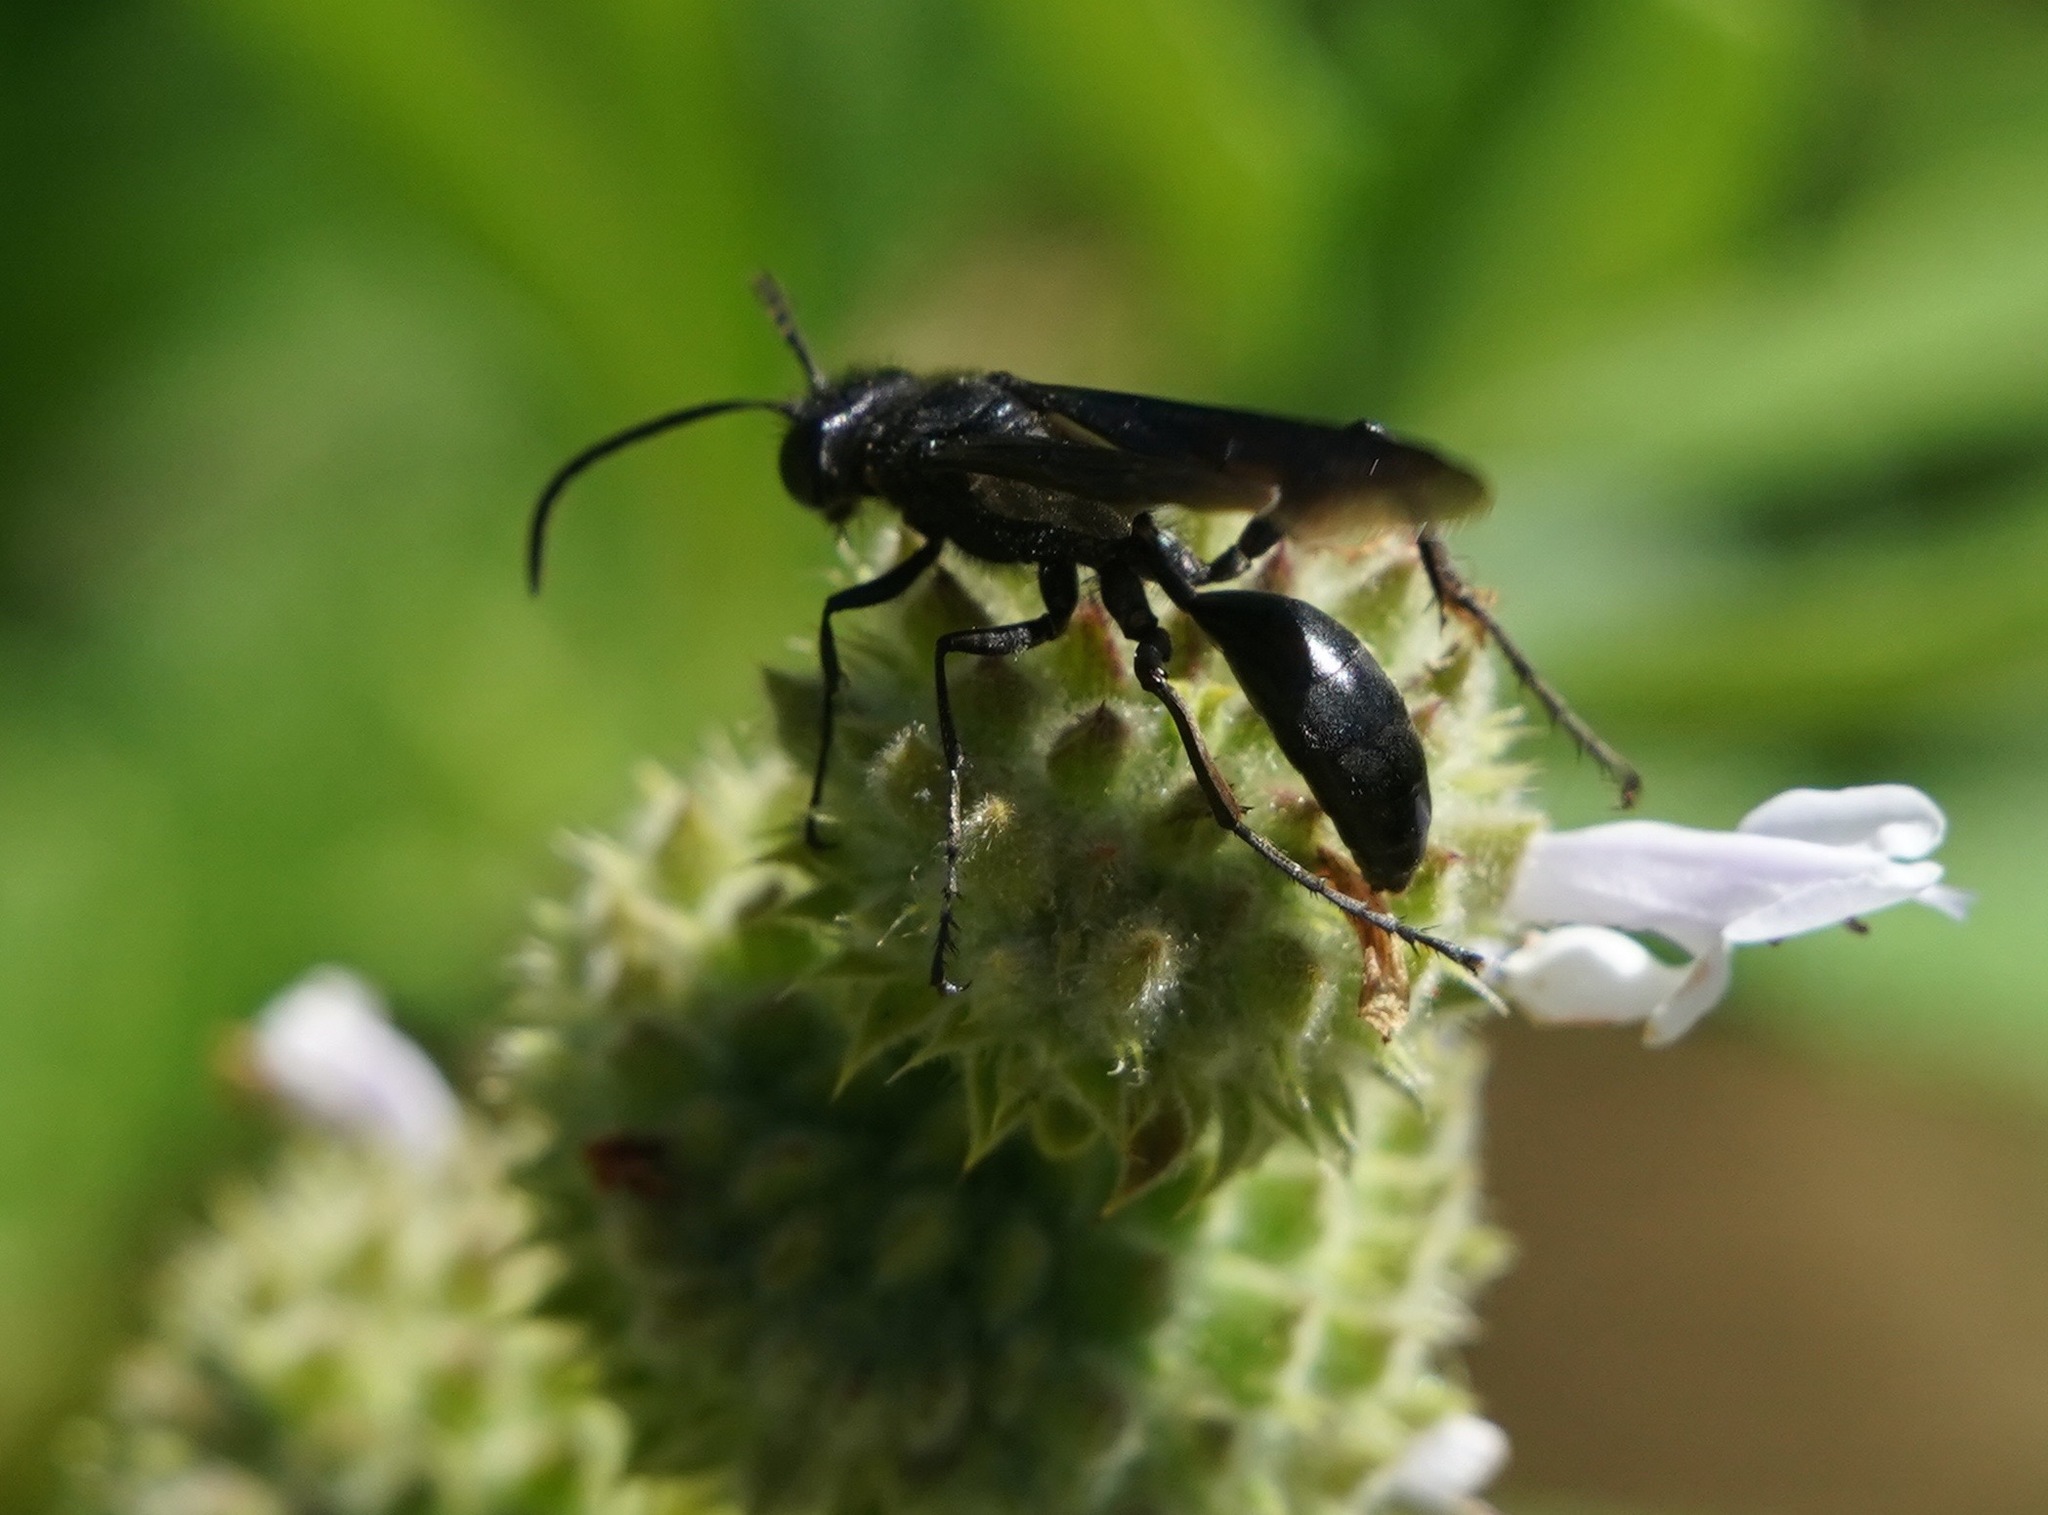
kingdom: Animalia
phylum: Arthropoda
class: Insecta
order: Hymenoptera
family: Sphecidae
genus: Sphex
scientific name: Sphex lucae
